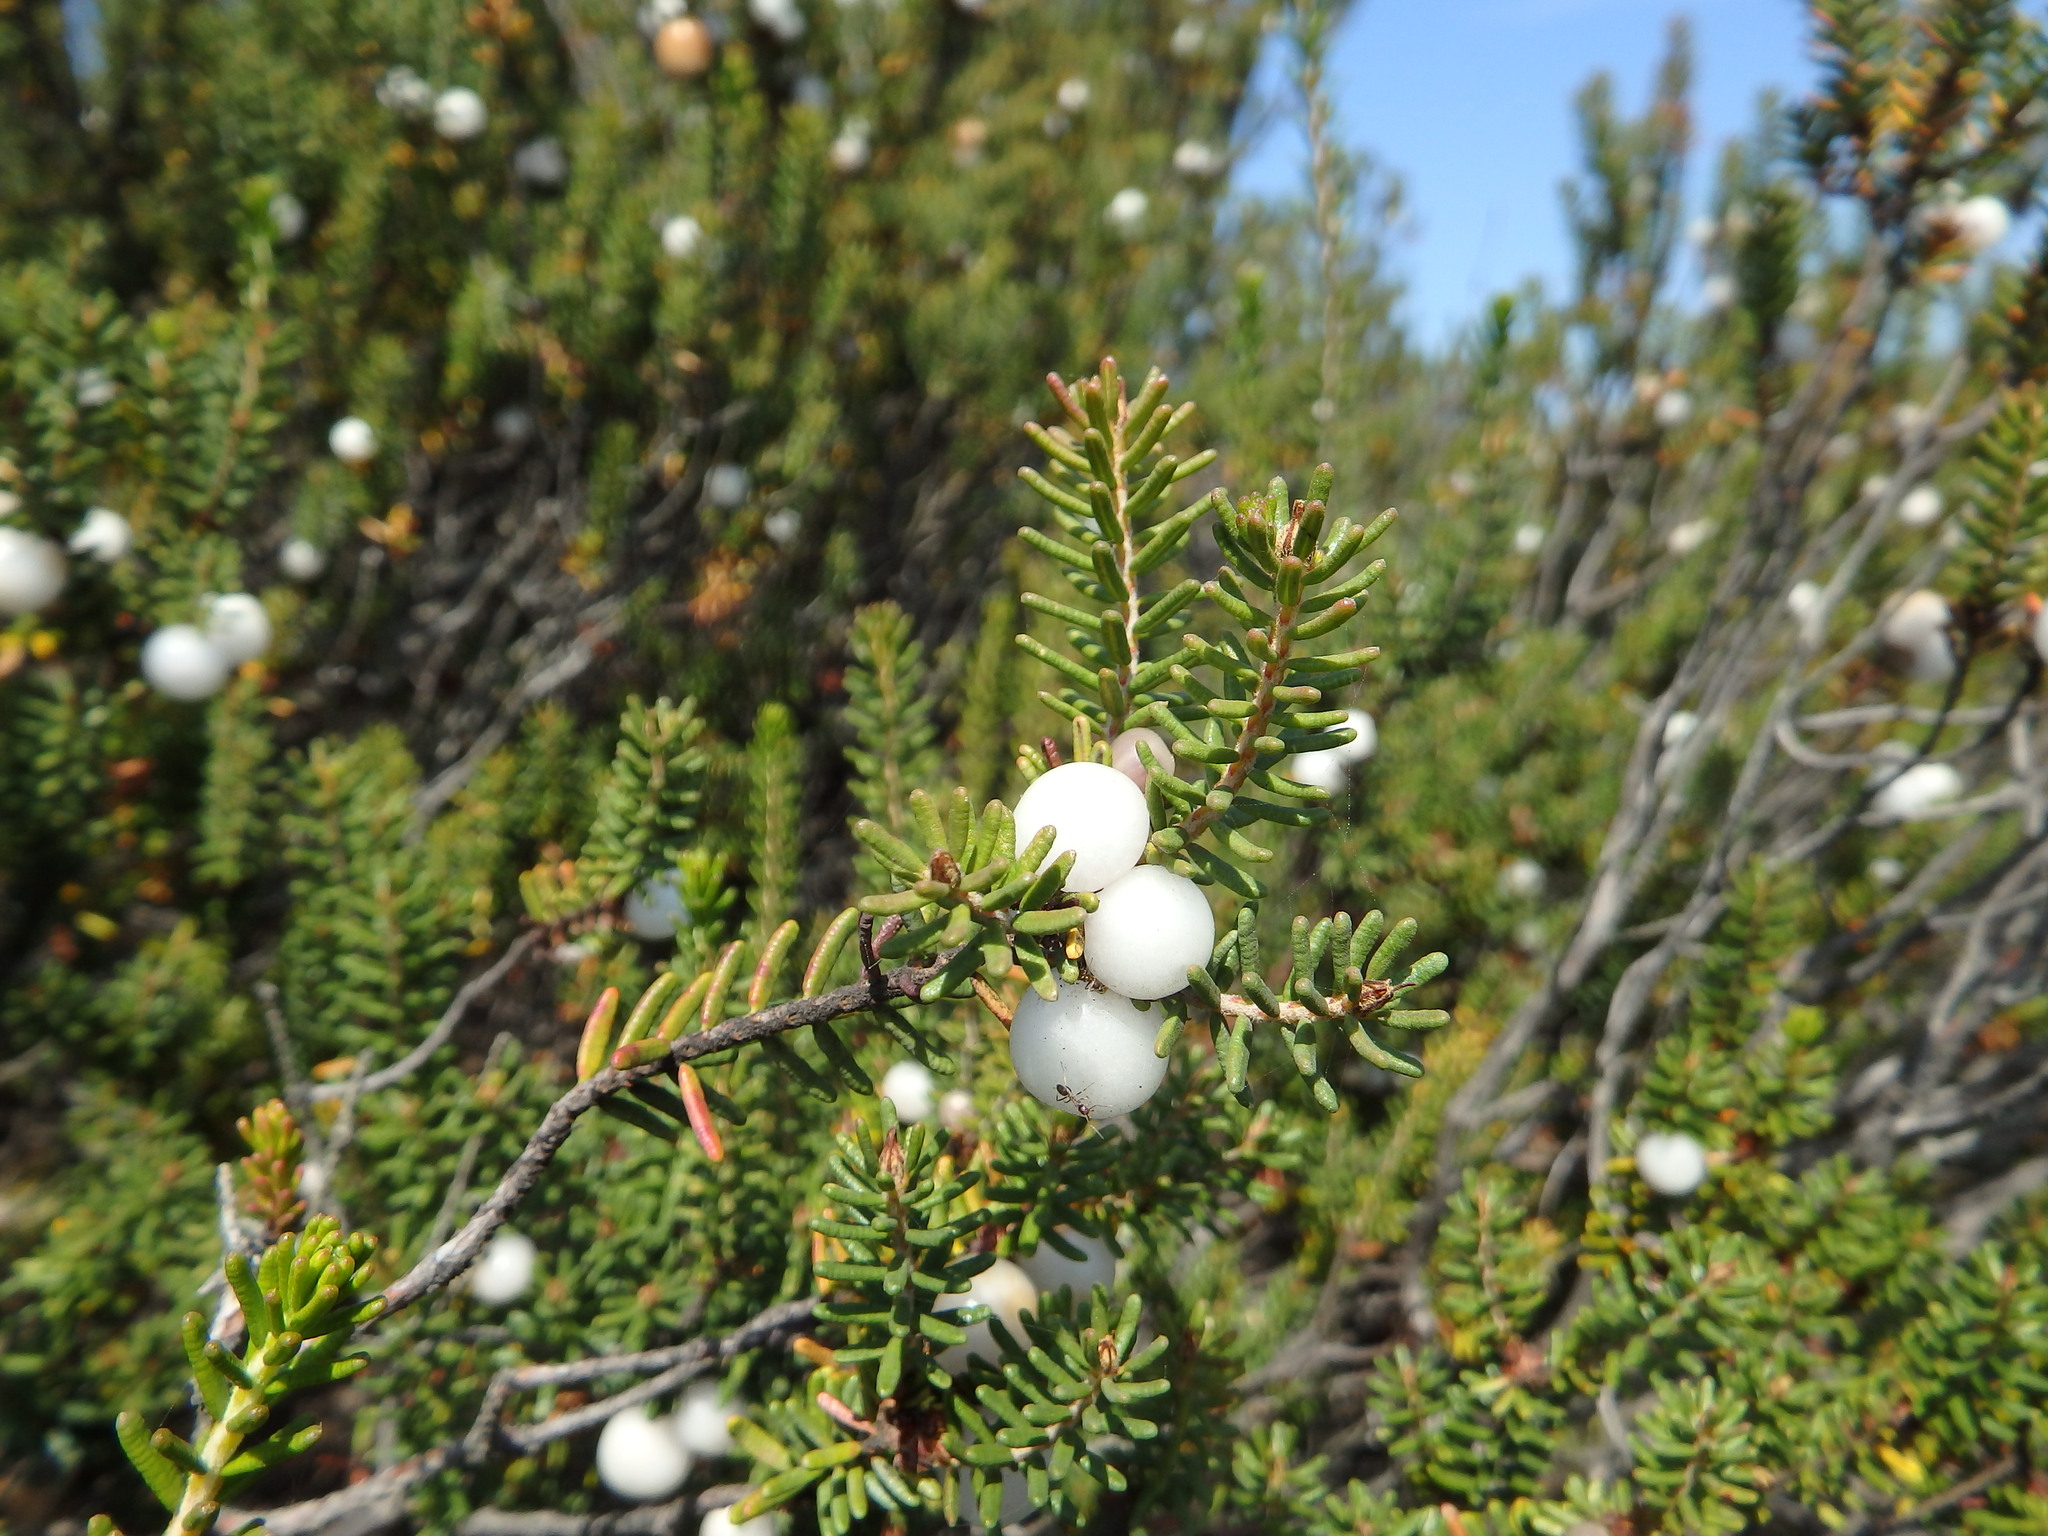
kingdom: Plantae
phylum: Tracheophyta
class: Magnoliopsida
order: Ericales
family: Ericaceae
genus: Corema
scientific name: Corema album
